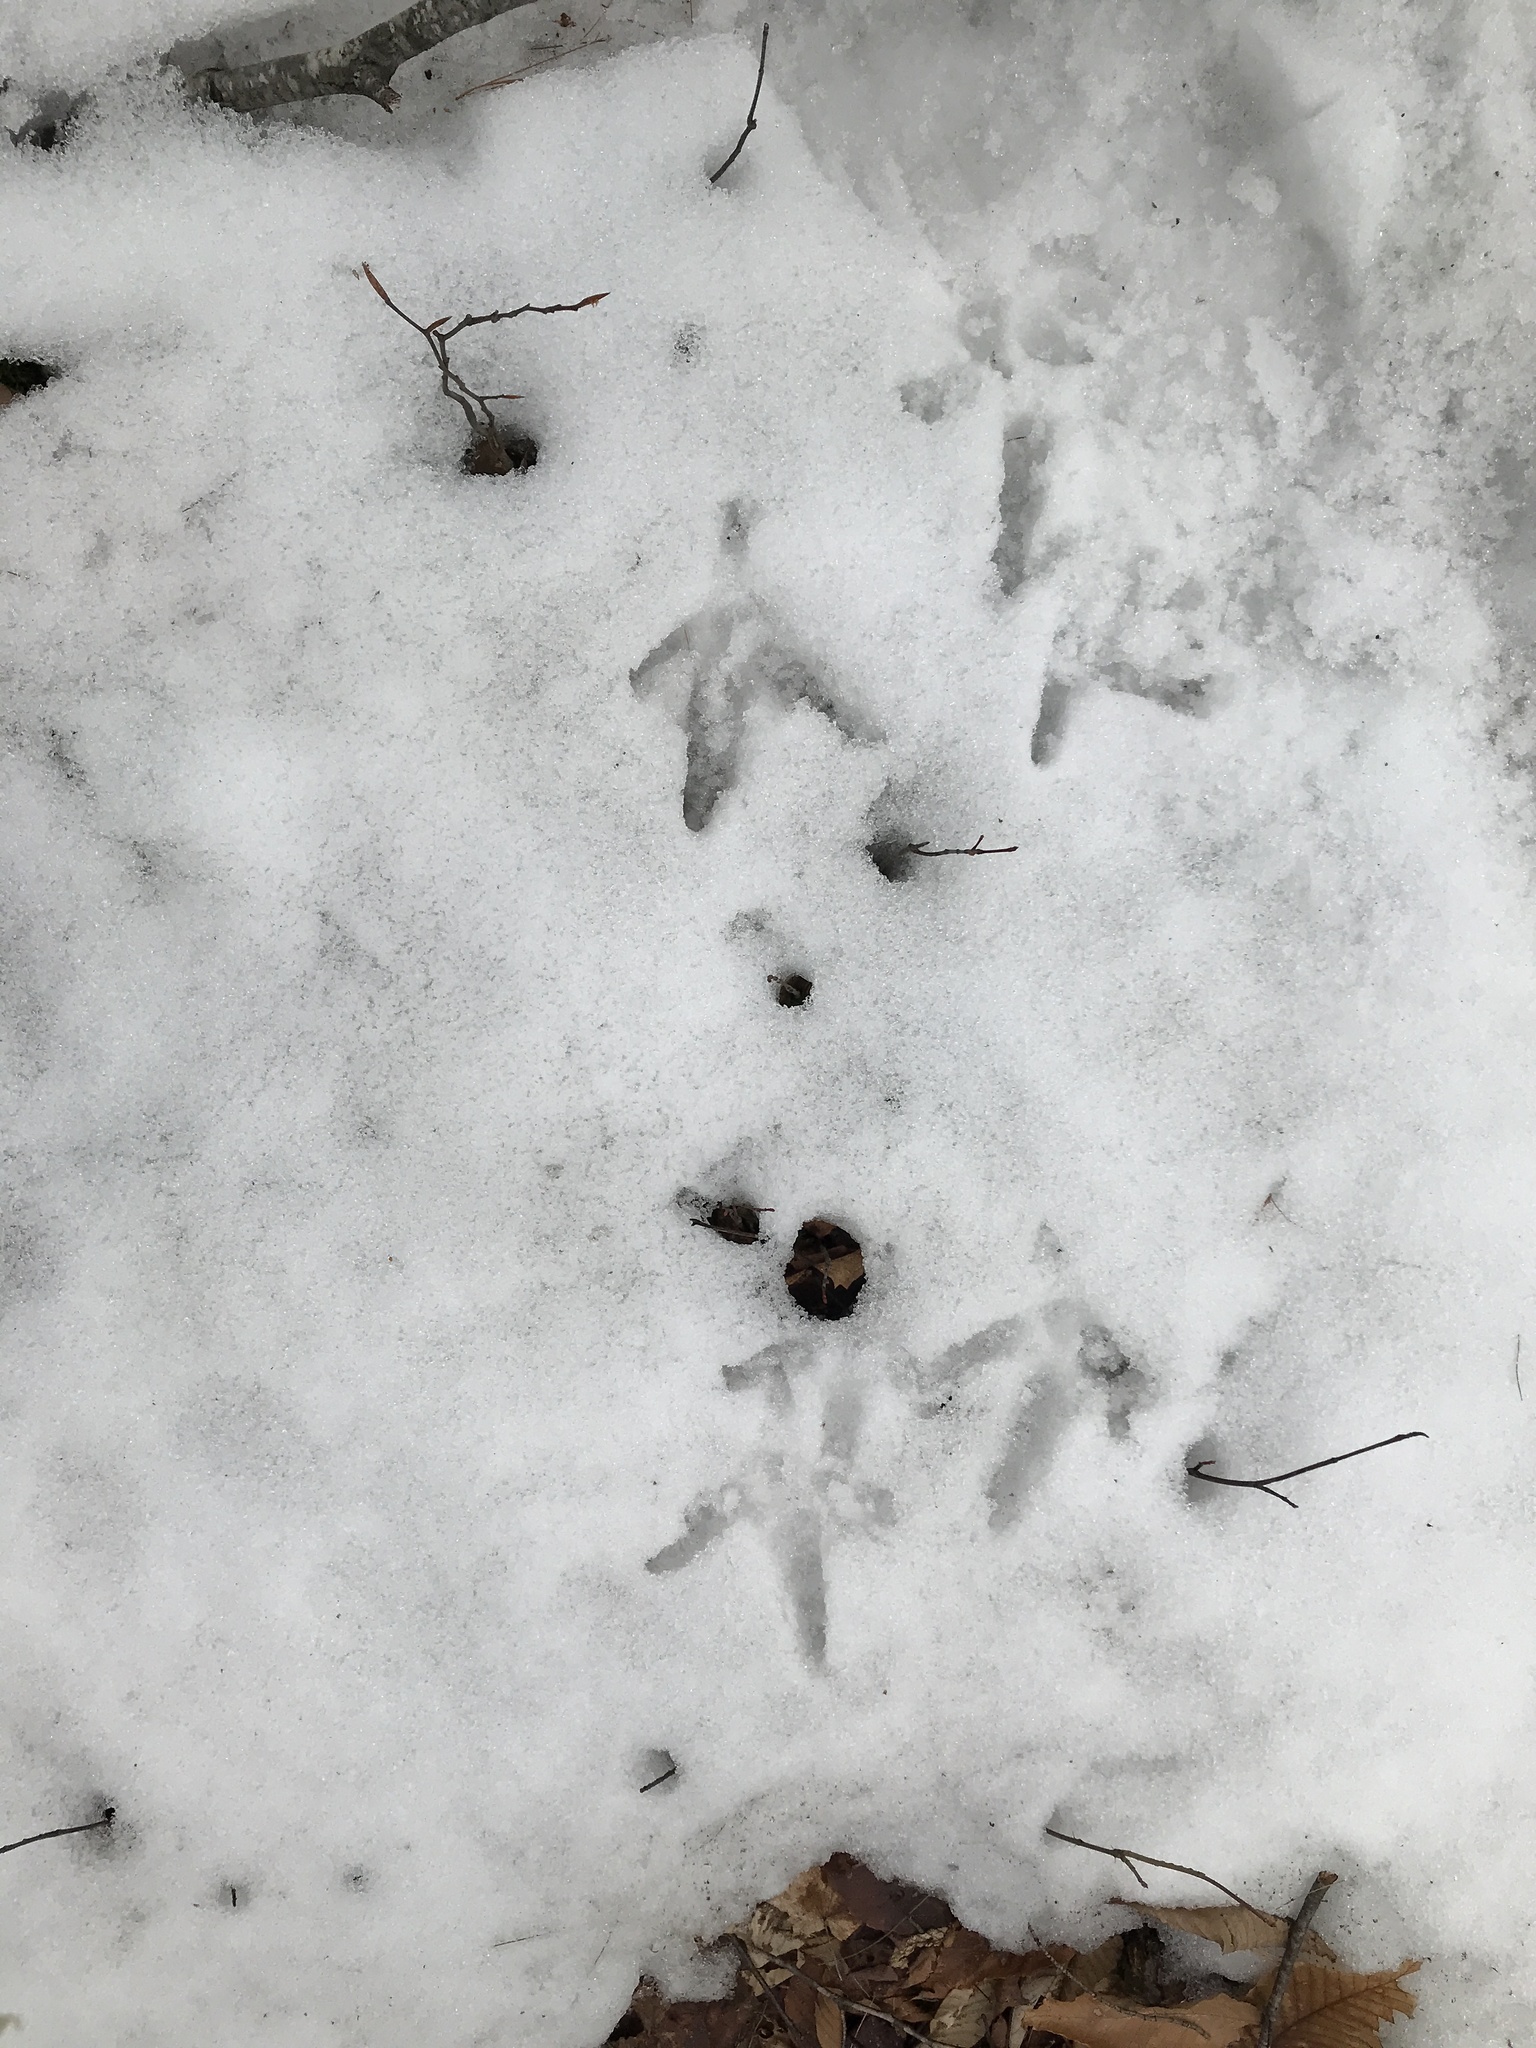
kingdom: Animalia
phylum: Chordata
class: Aves
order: Galliformes
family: Phasianidae
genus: Meleagris
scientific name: Meleagris gallopavo
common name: Wild turkey
